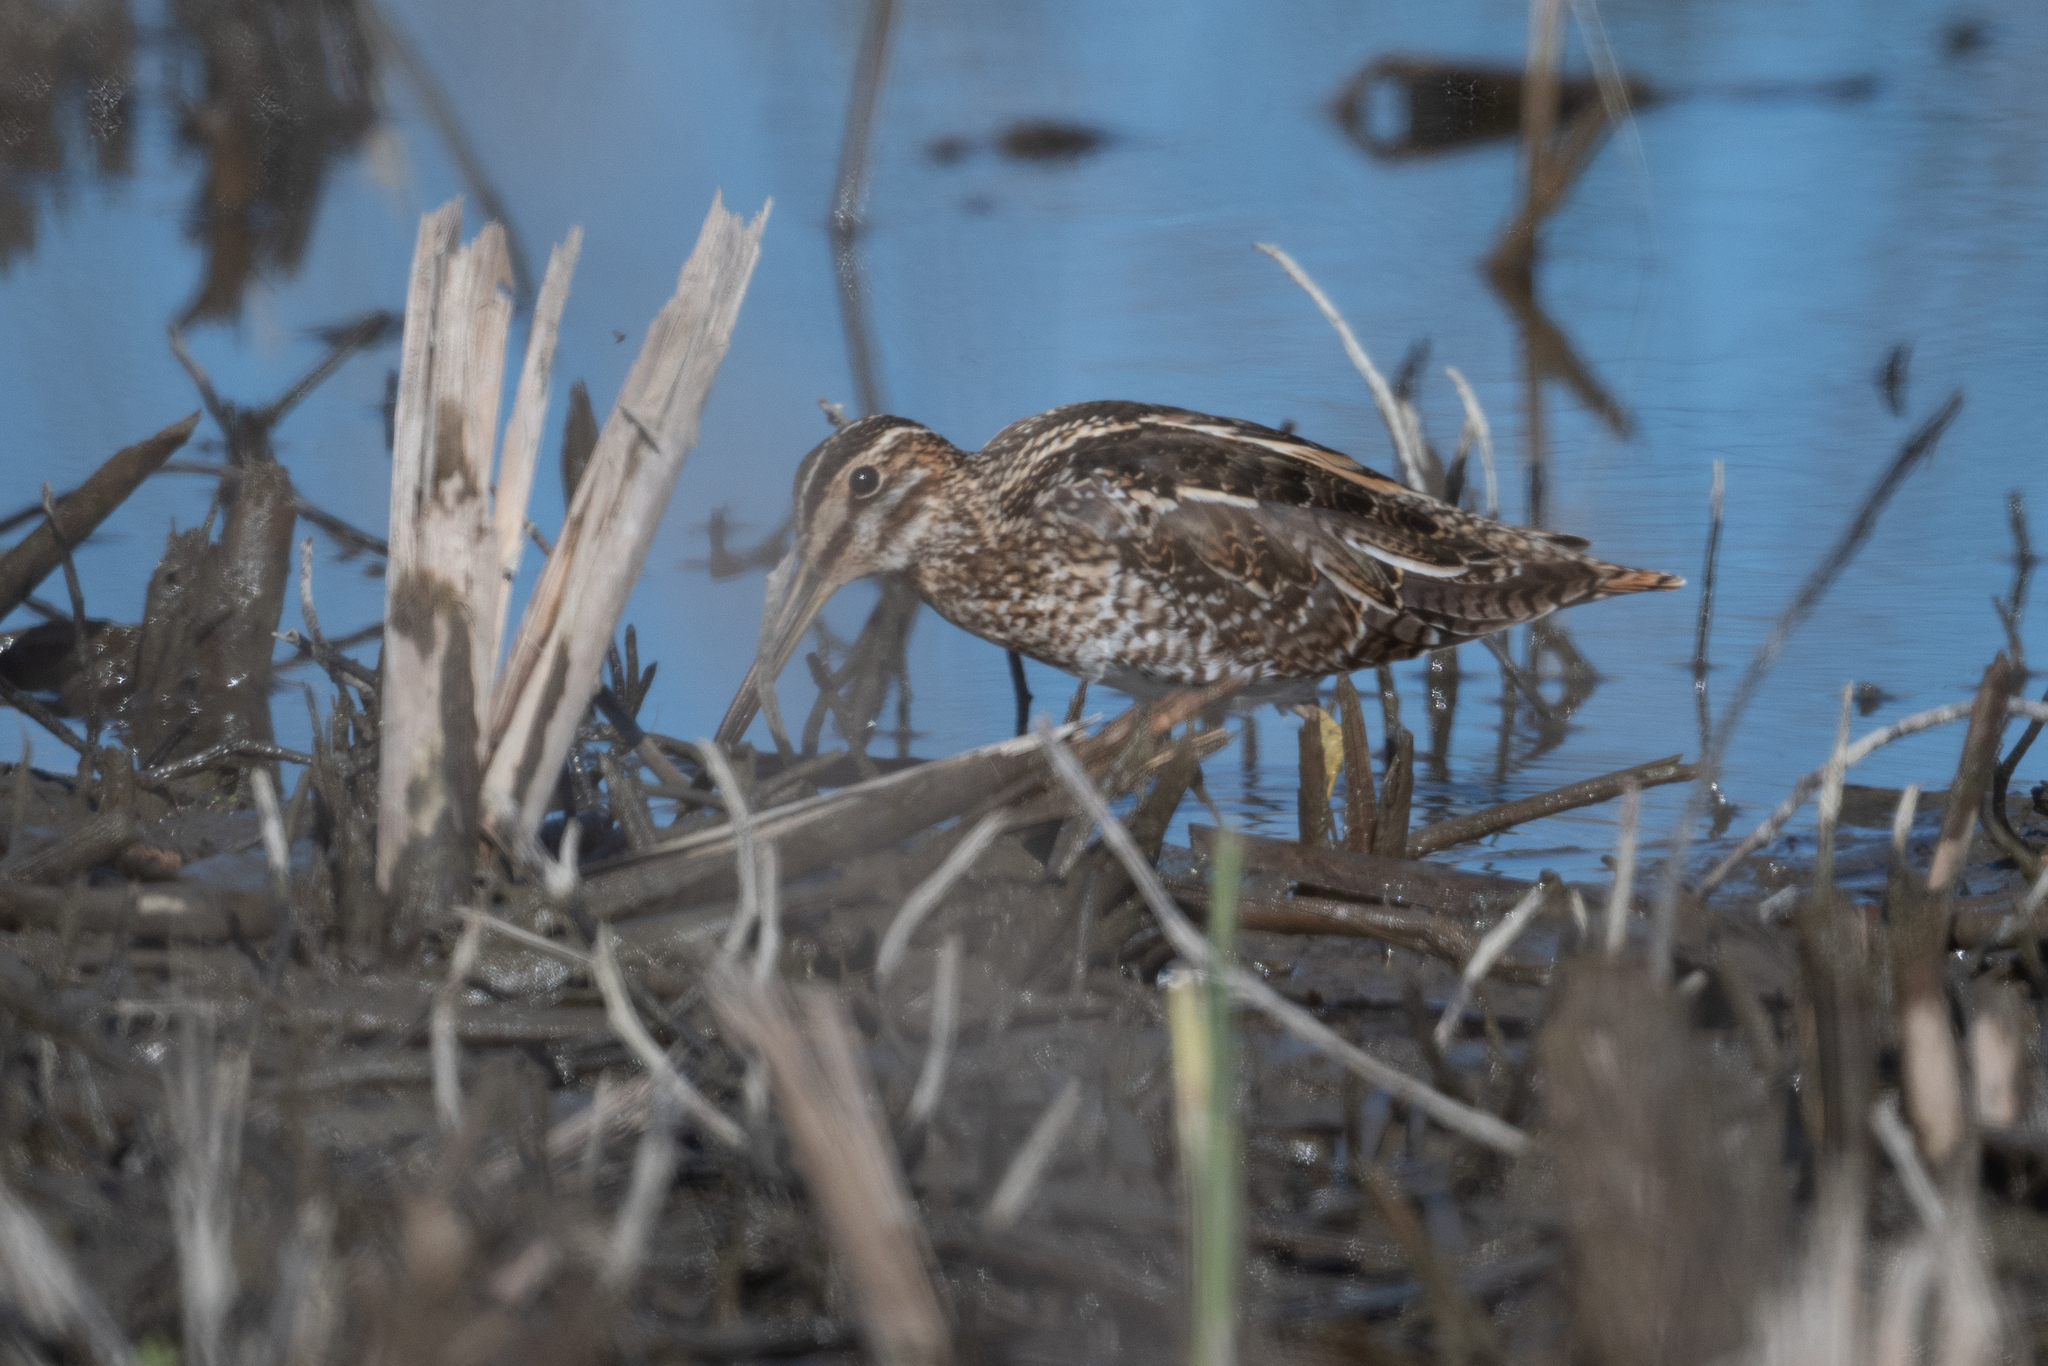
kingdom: Animalia
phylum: Chordata
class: Aves
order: Charadriiformes
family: Scolopacidae
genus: Gallinago
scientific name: Gallinago delicata
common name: Wilson's snipe
